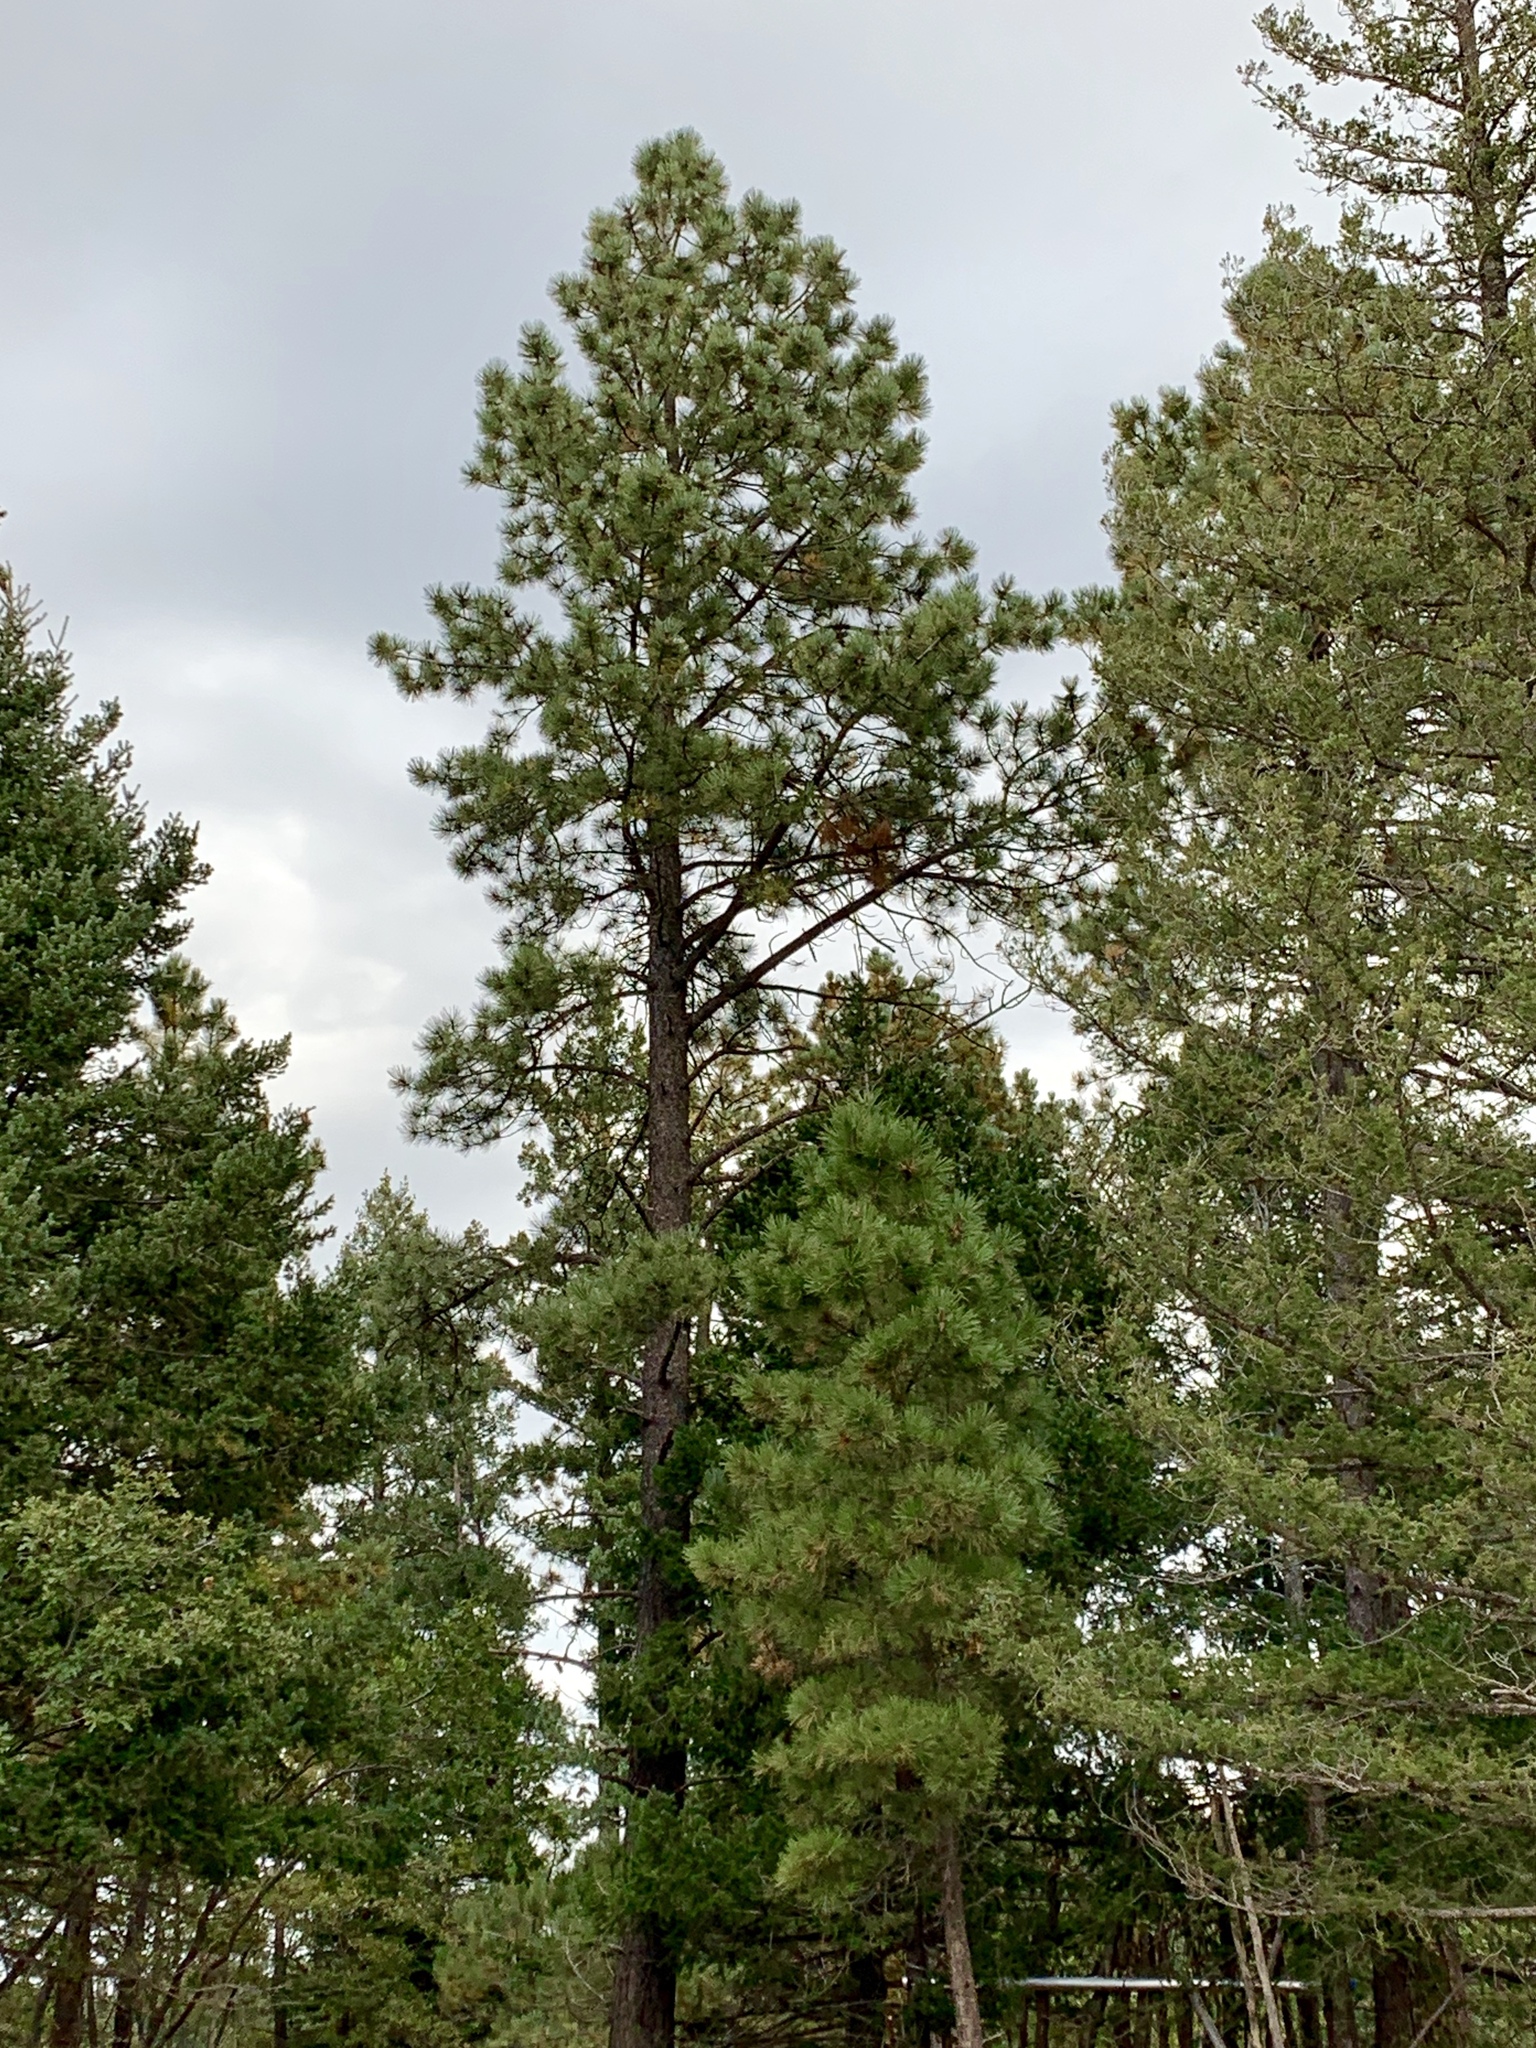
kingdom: Plantae
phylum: Tracheophyta
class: Pinopsida
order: Pinales
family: Pinaceae
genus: Pinus
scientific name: Pinus ponderosa
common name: Western yellow-pine
